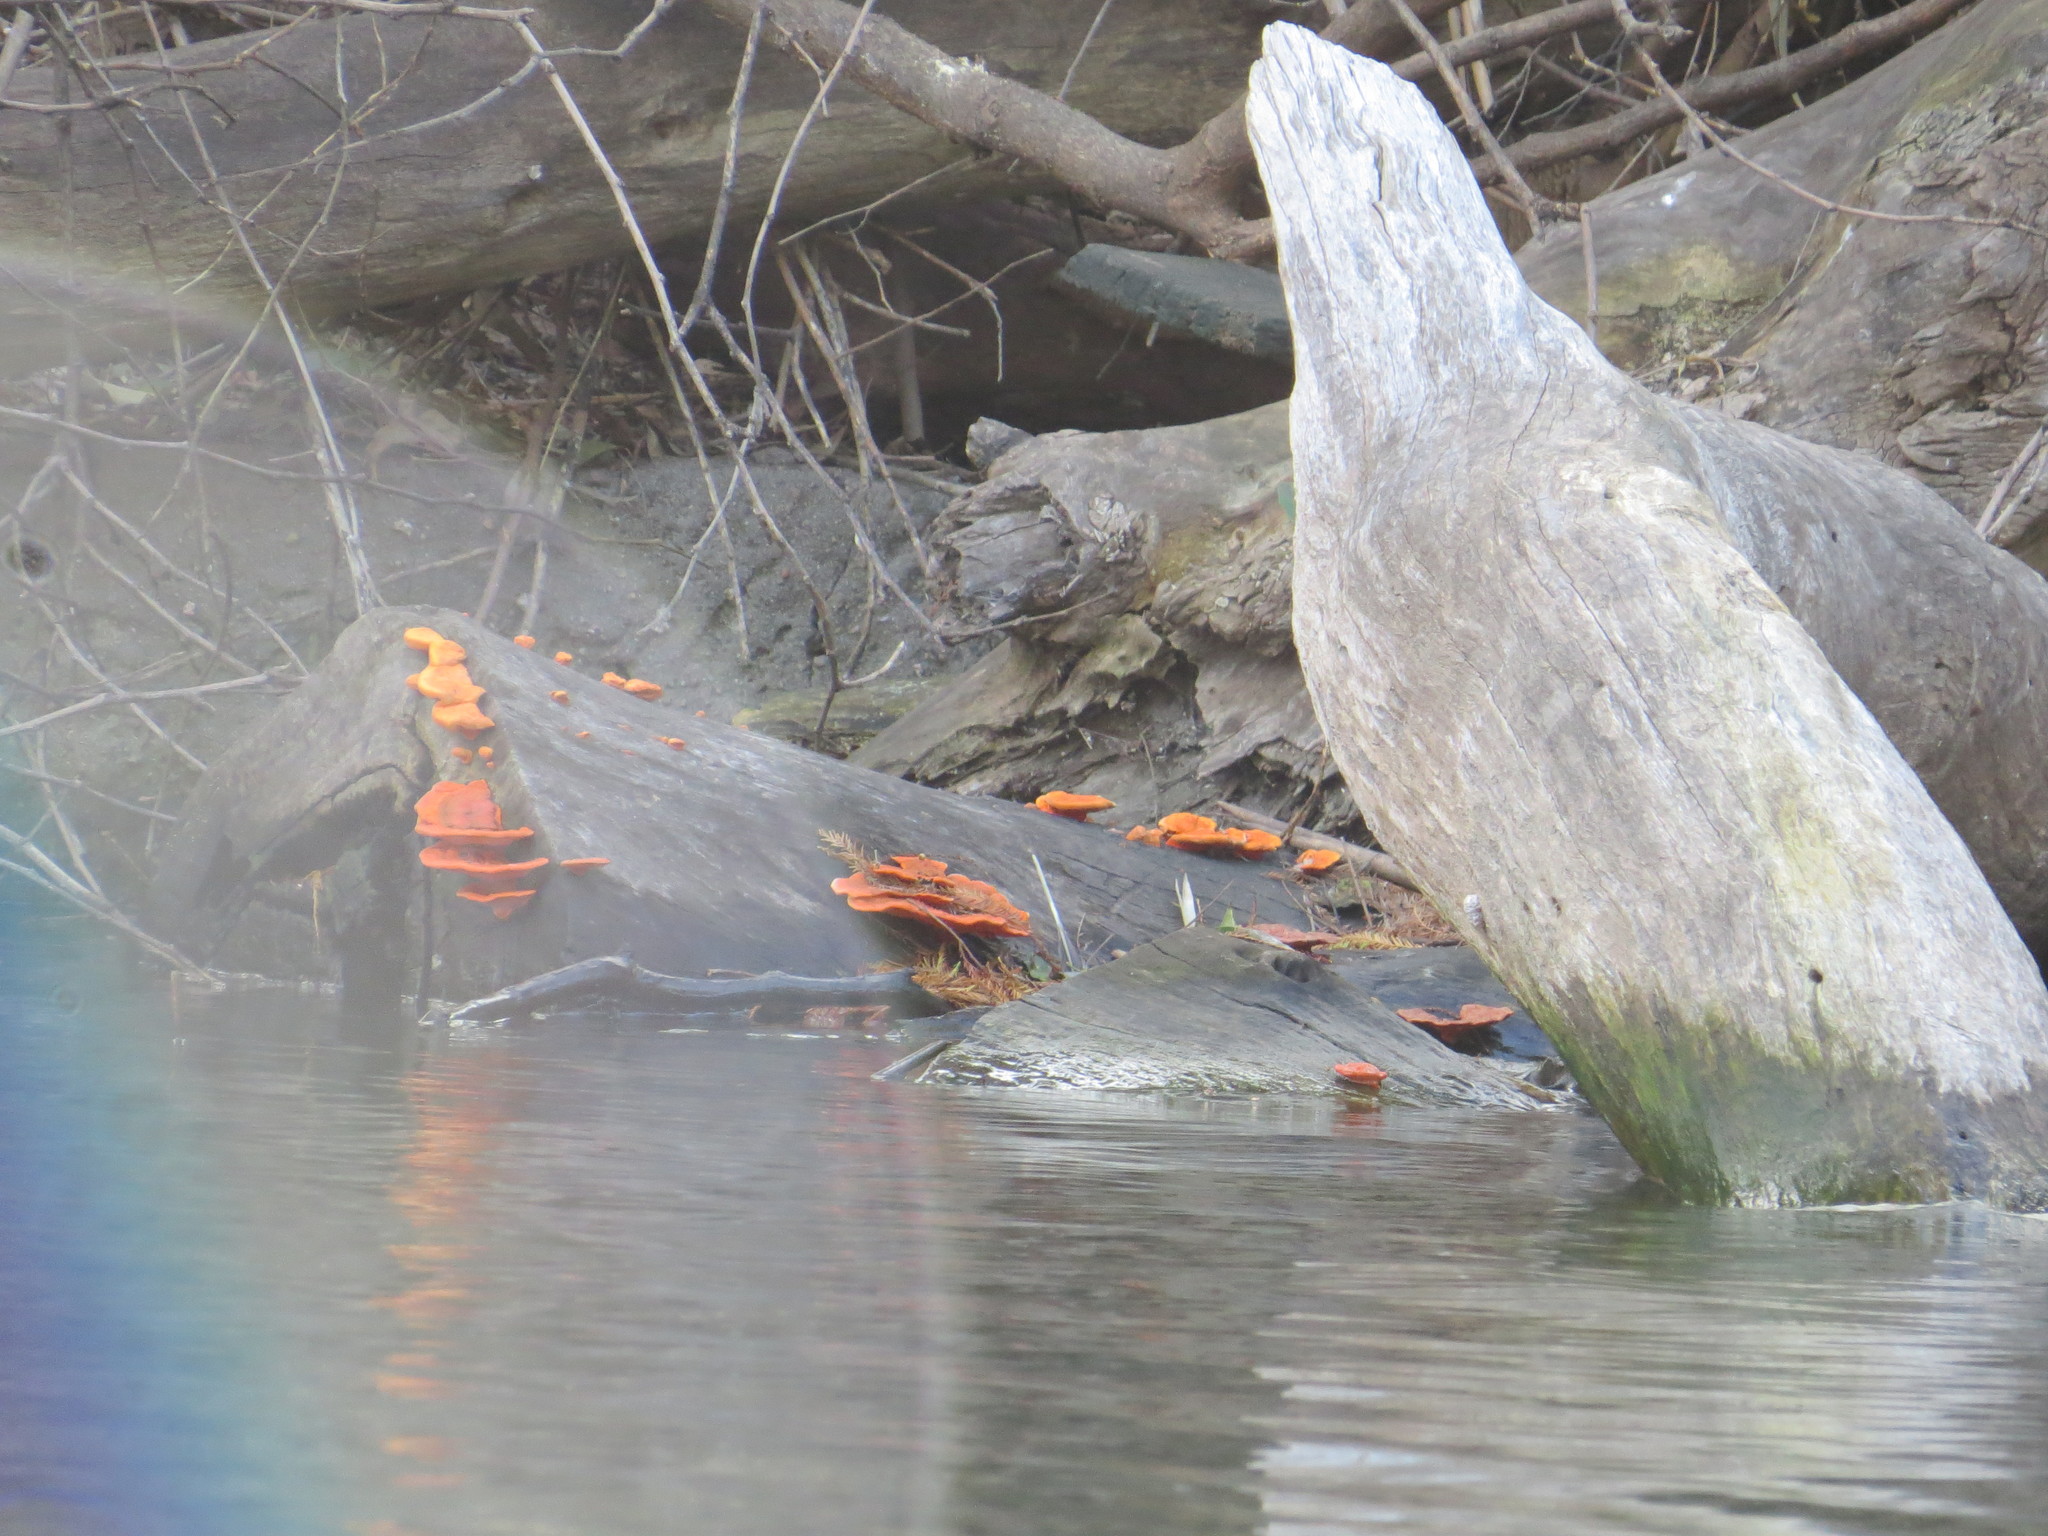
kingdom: Fungi
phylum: Basidiomycota
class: Agaricomycetes
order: Polyporales
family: Polyporaceae
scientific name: Polyporaceae
